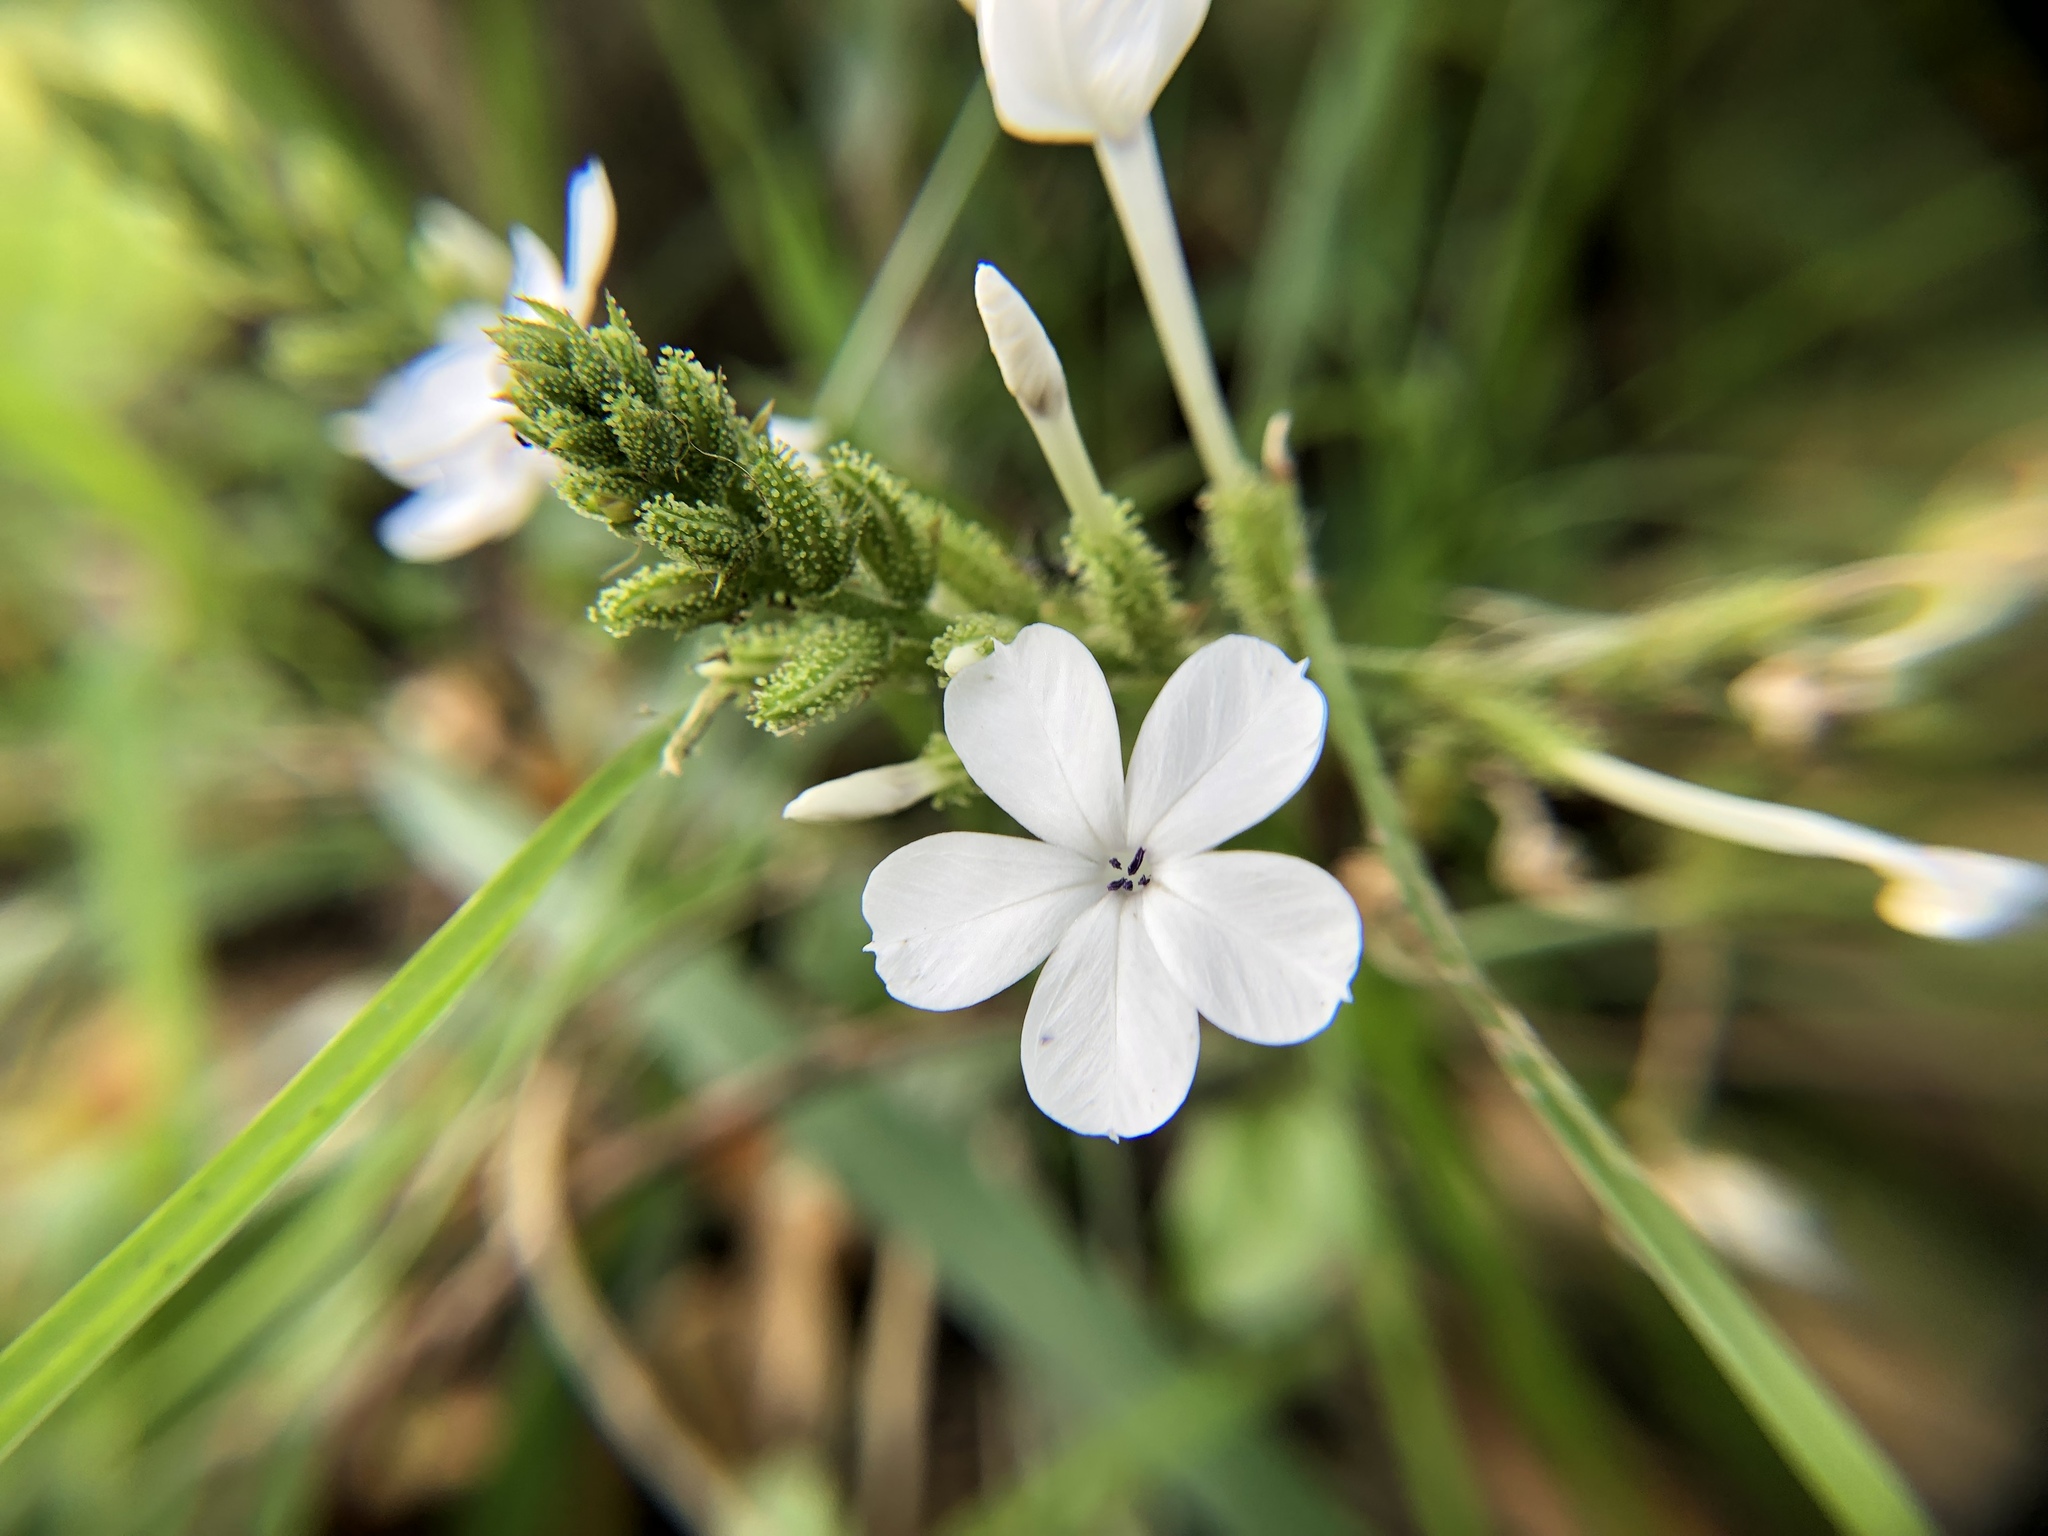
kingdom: Plantae
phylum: Tracheophyta
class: Magnoliopsida
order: Caryophyllales
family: Plumbaginaceae
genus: Plumbago
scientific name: Plumbago zeylanica
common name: Doctorbush
